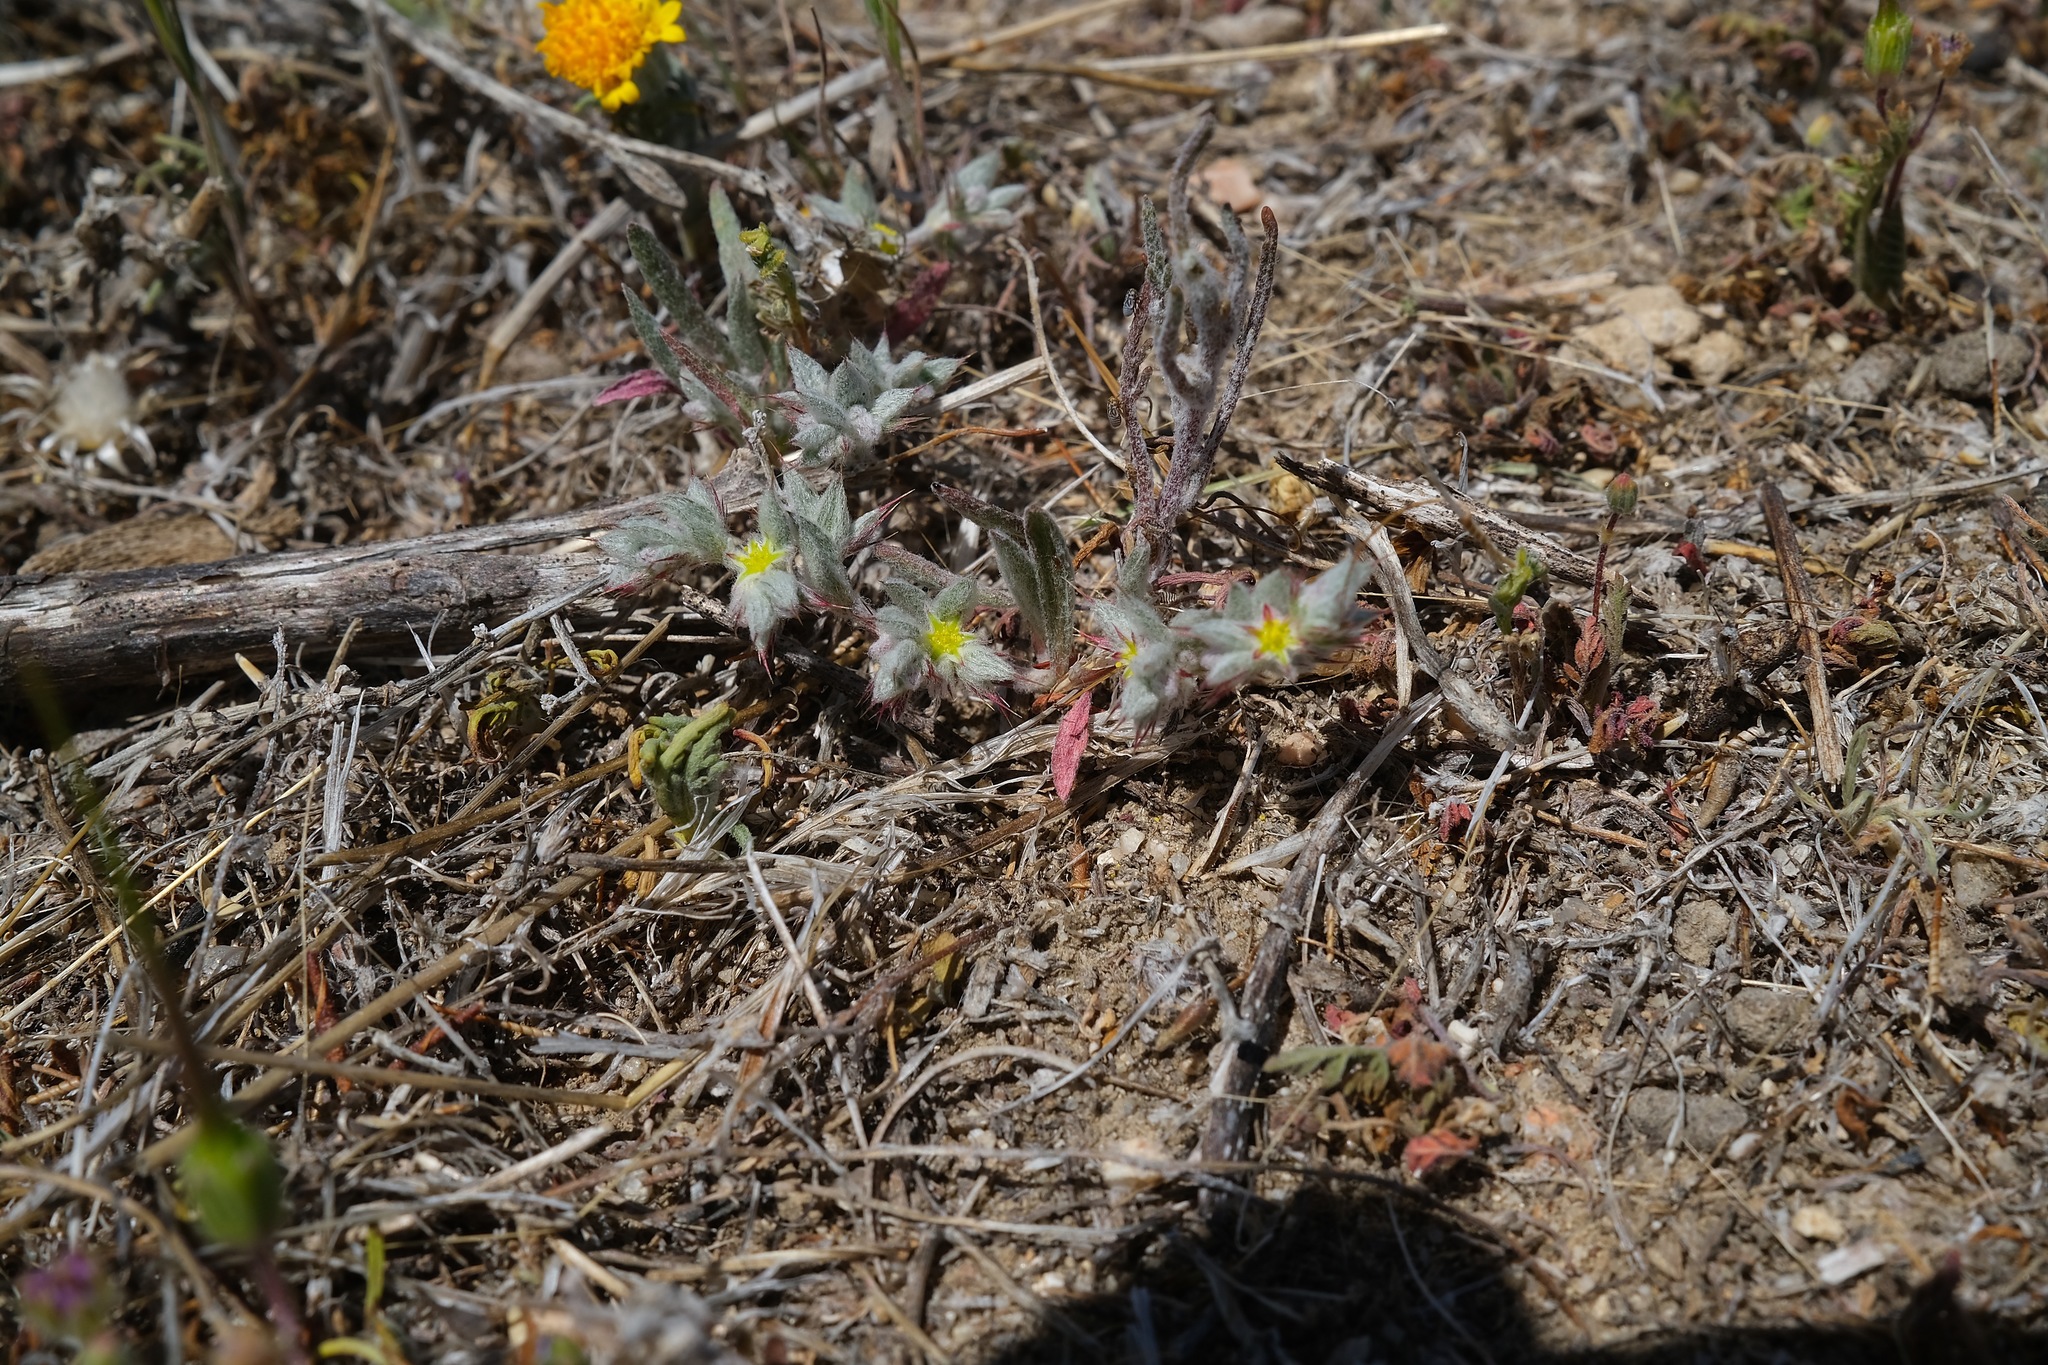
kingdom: Plantae
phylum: Tracheophyta
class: Magnoliopsida
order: Caryophyllales
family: Polygonaceae
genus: Hollisteria
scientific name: Hollisteria lanata
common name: False spike-flower
